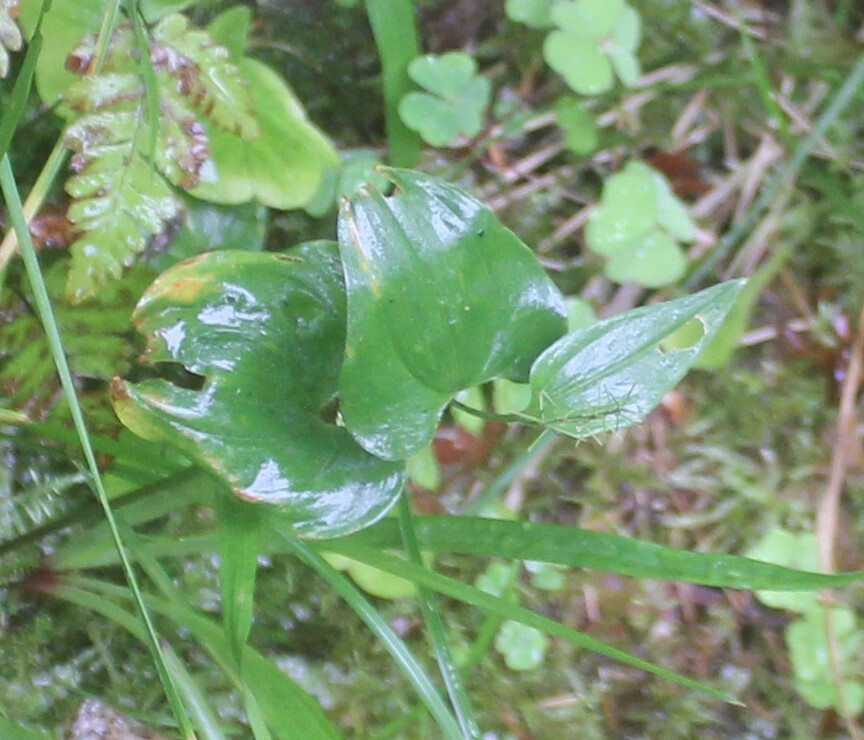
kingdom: Plantae
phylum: Tracheophyta
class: Liliopsida
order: Asparagales
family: Asparagaceae
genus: Maianthemum
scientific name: Maianthemum bifolium
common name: May lily
